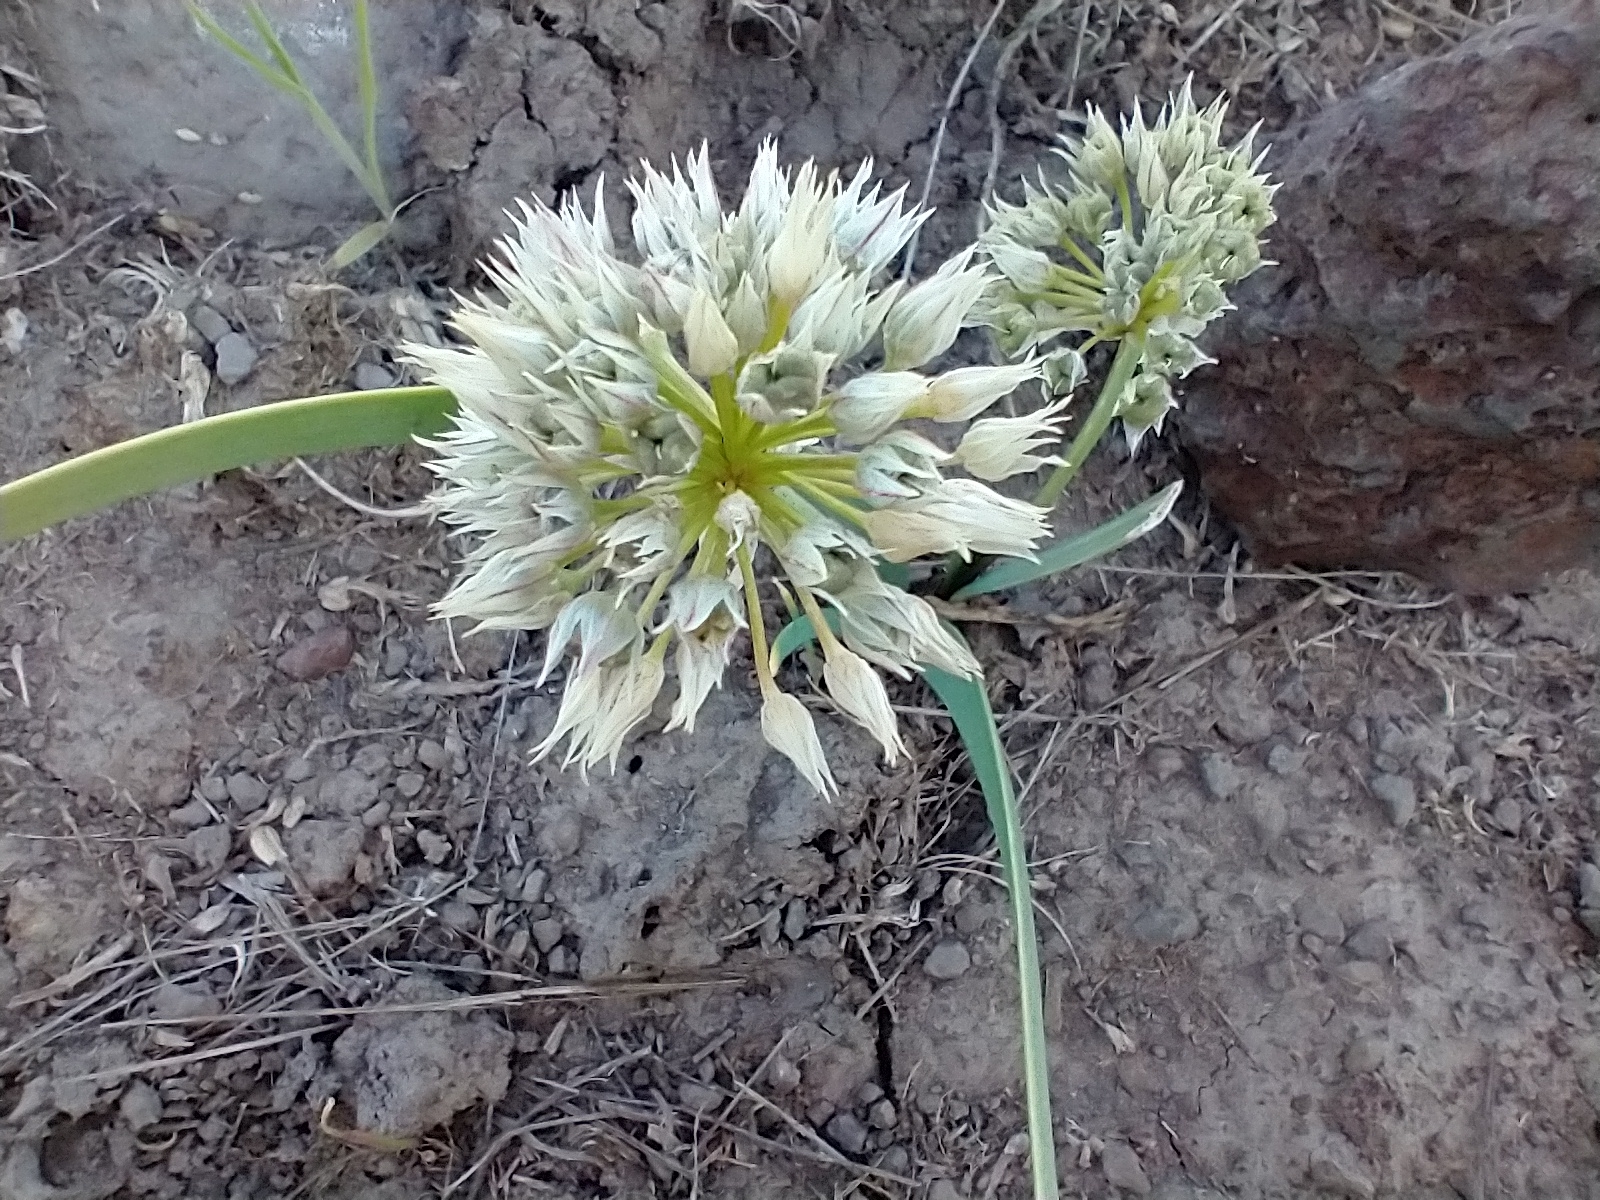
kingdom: Plantae
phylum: Tracheophyta
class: Liliopsida
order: Asparagales
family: Amaryllidaceae
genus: Allium
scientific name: Allium tolmiei
